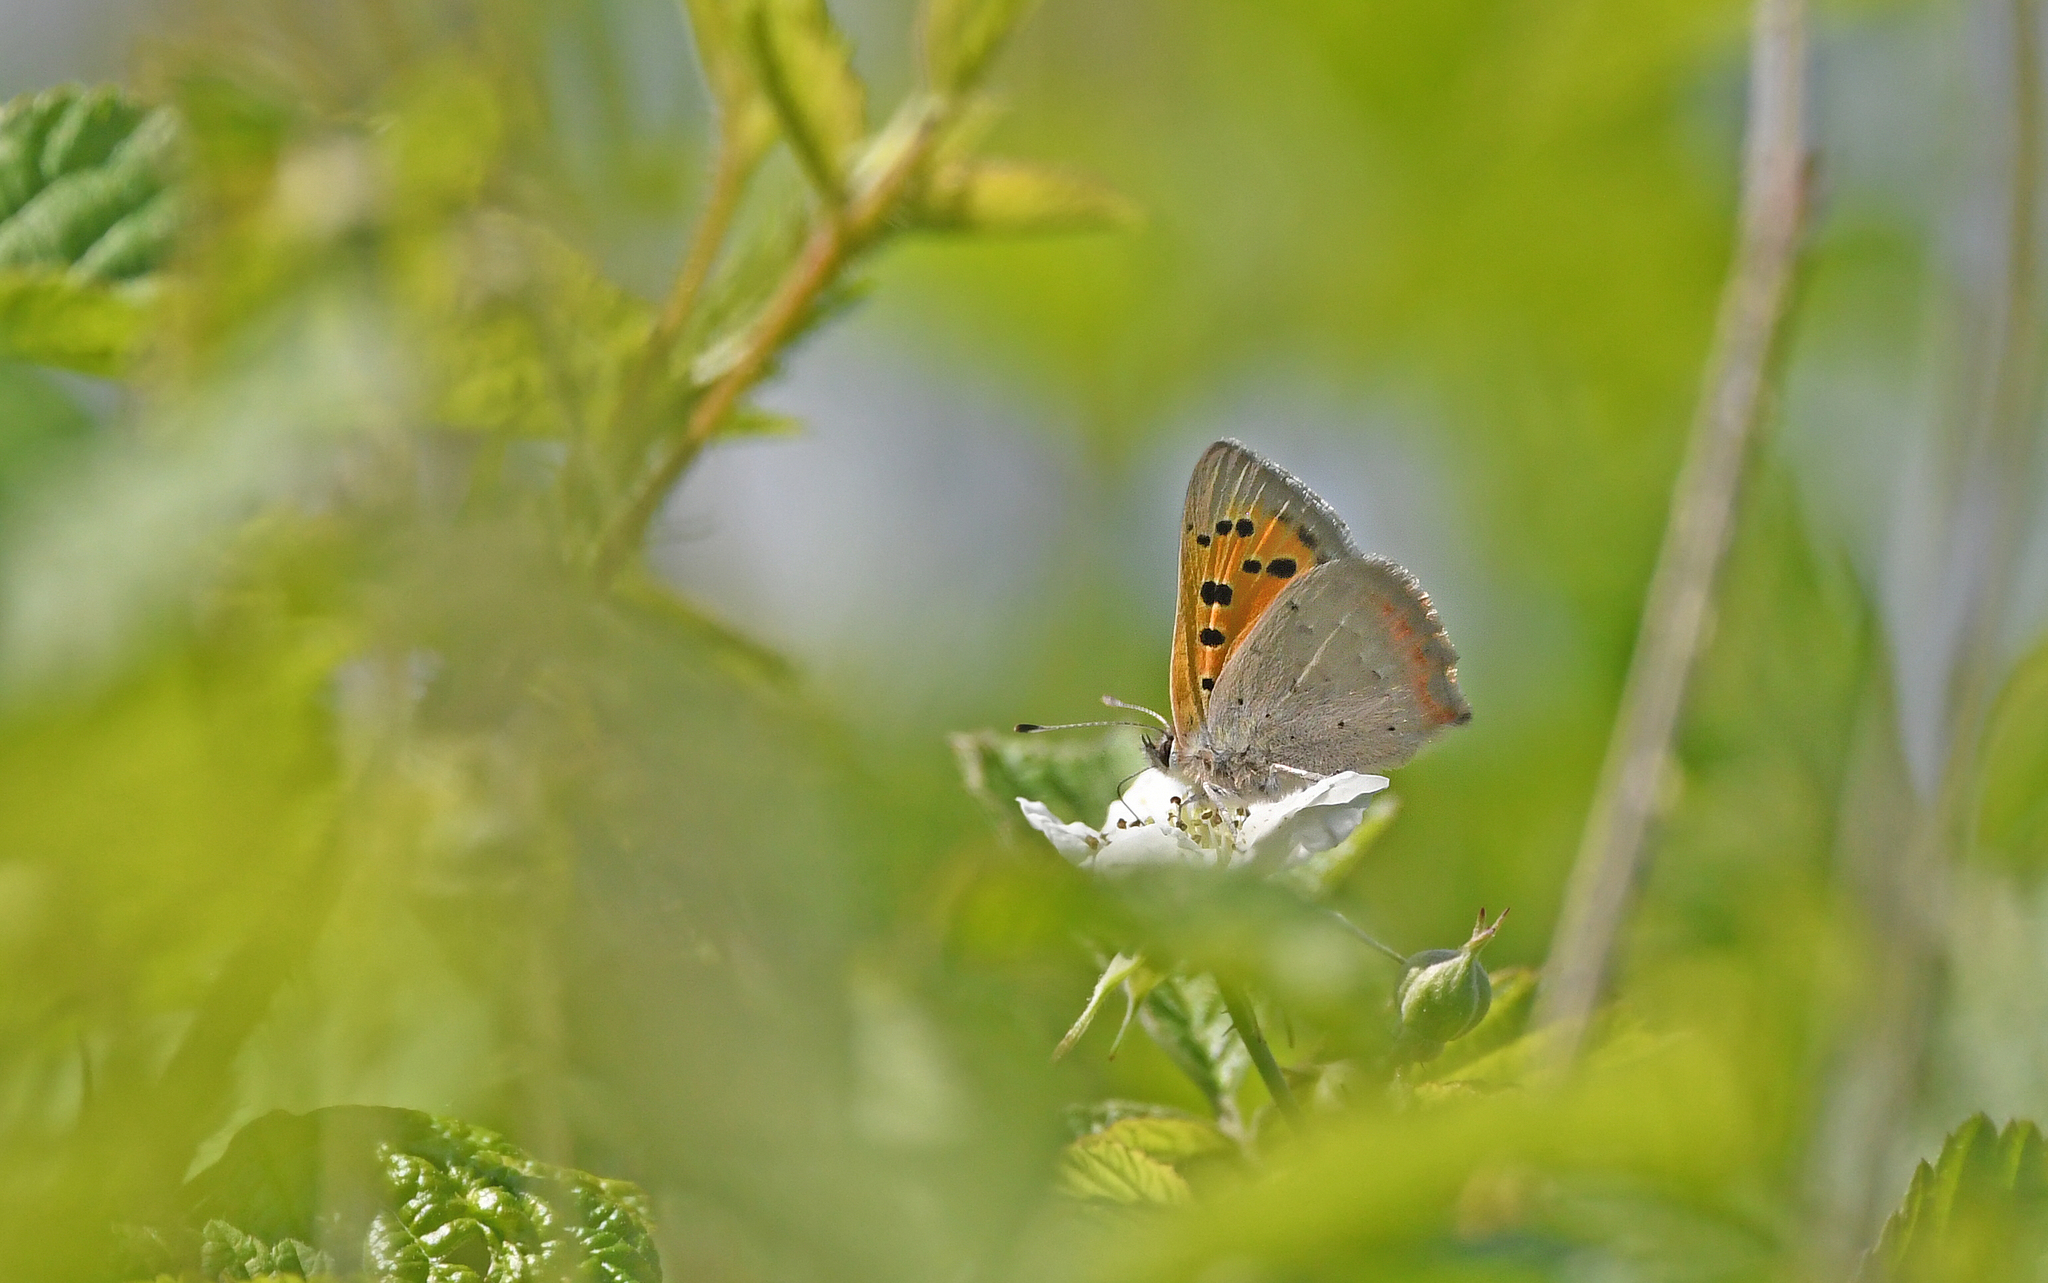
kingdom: Animalia
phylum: Arthropoda
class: Insecta
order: Lepidoptera
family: Lycaenidae
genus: Lycaena
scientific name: Lycaena phlaeas
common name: Small copper
